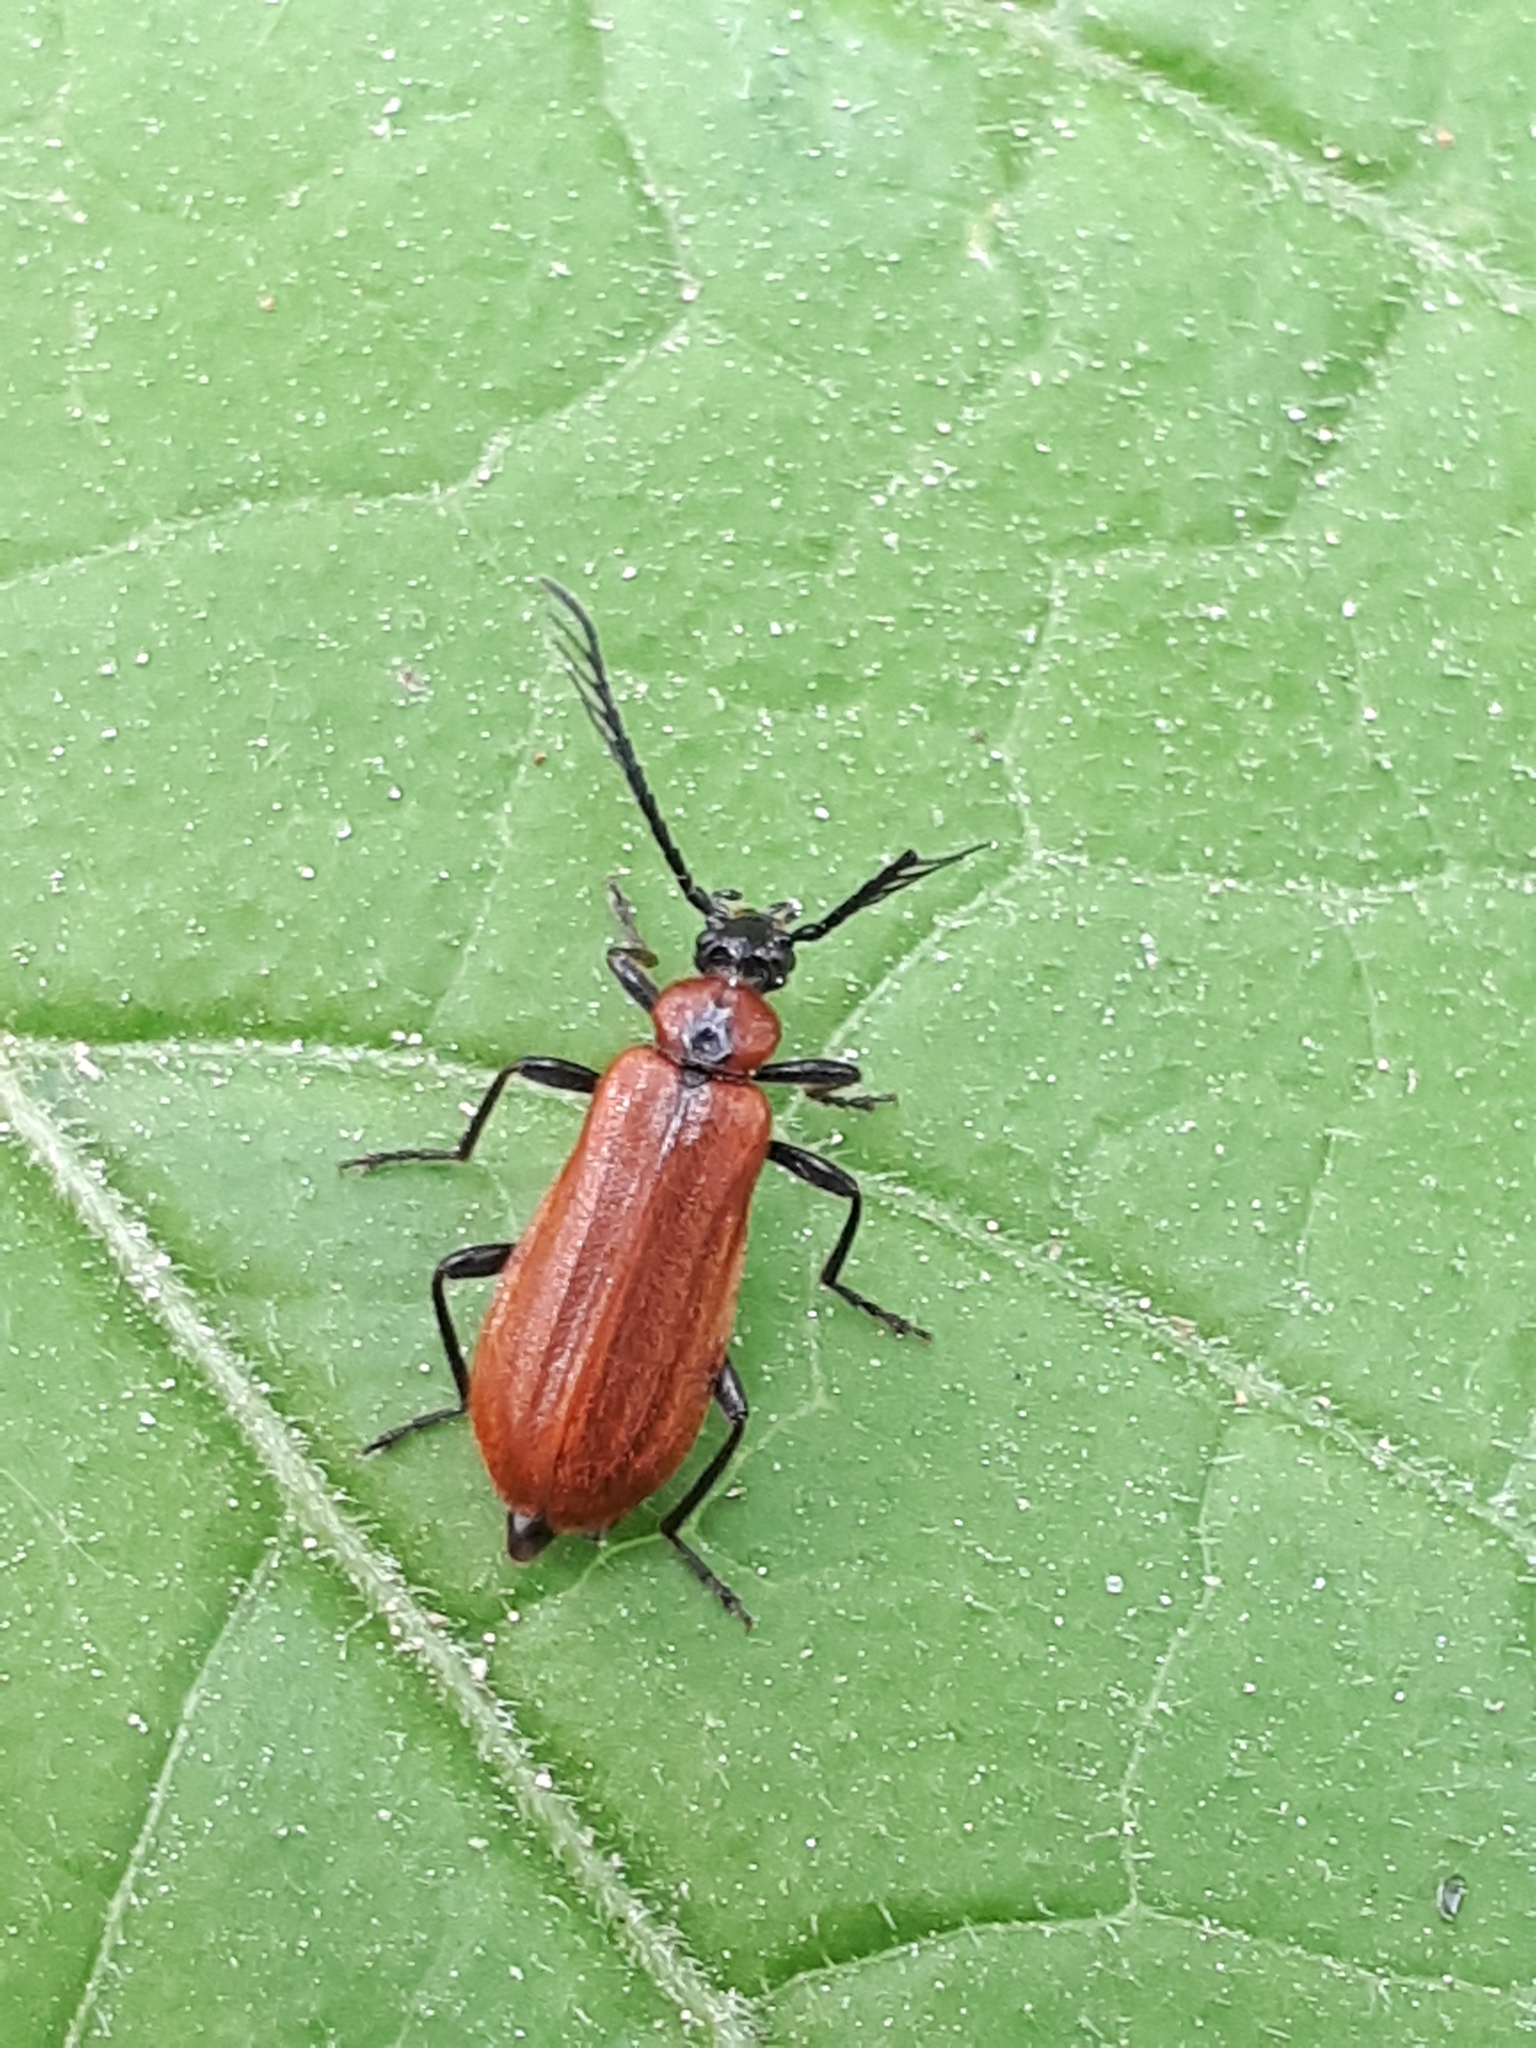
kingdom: Animalia
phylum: Arthropoda
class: Insecta
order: Coleoptera
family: Pyrochroidae
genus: Schizotus
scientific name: Schizotus pectinicornis
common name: Scarce cardinal beetle
